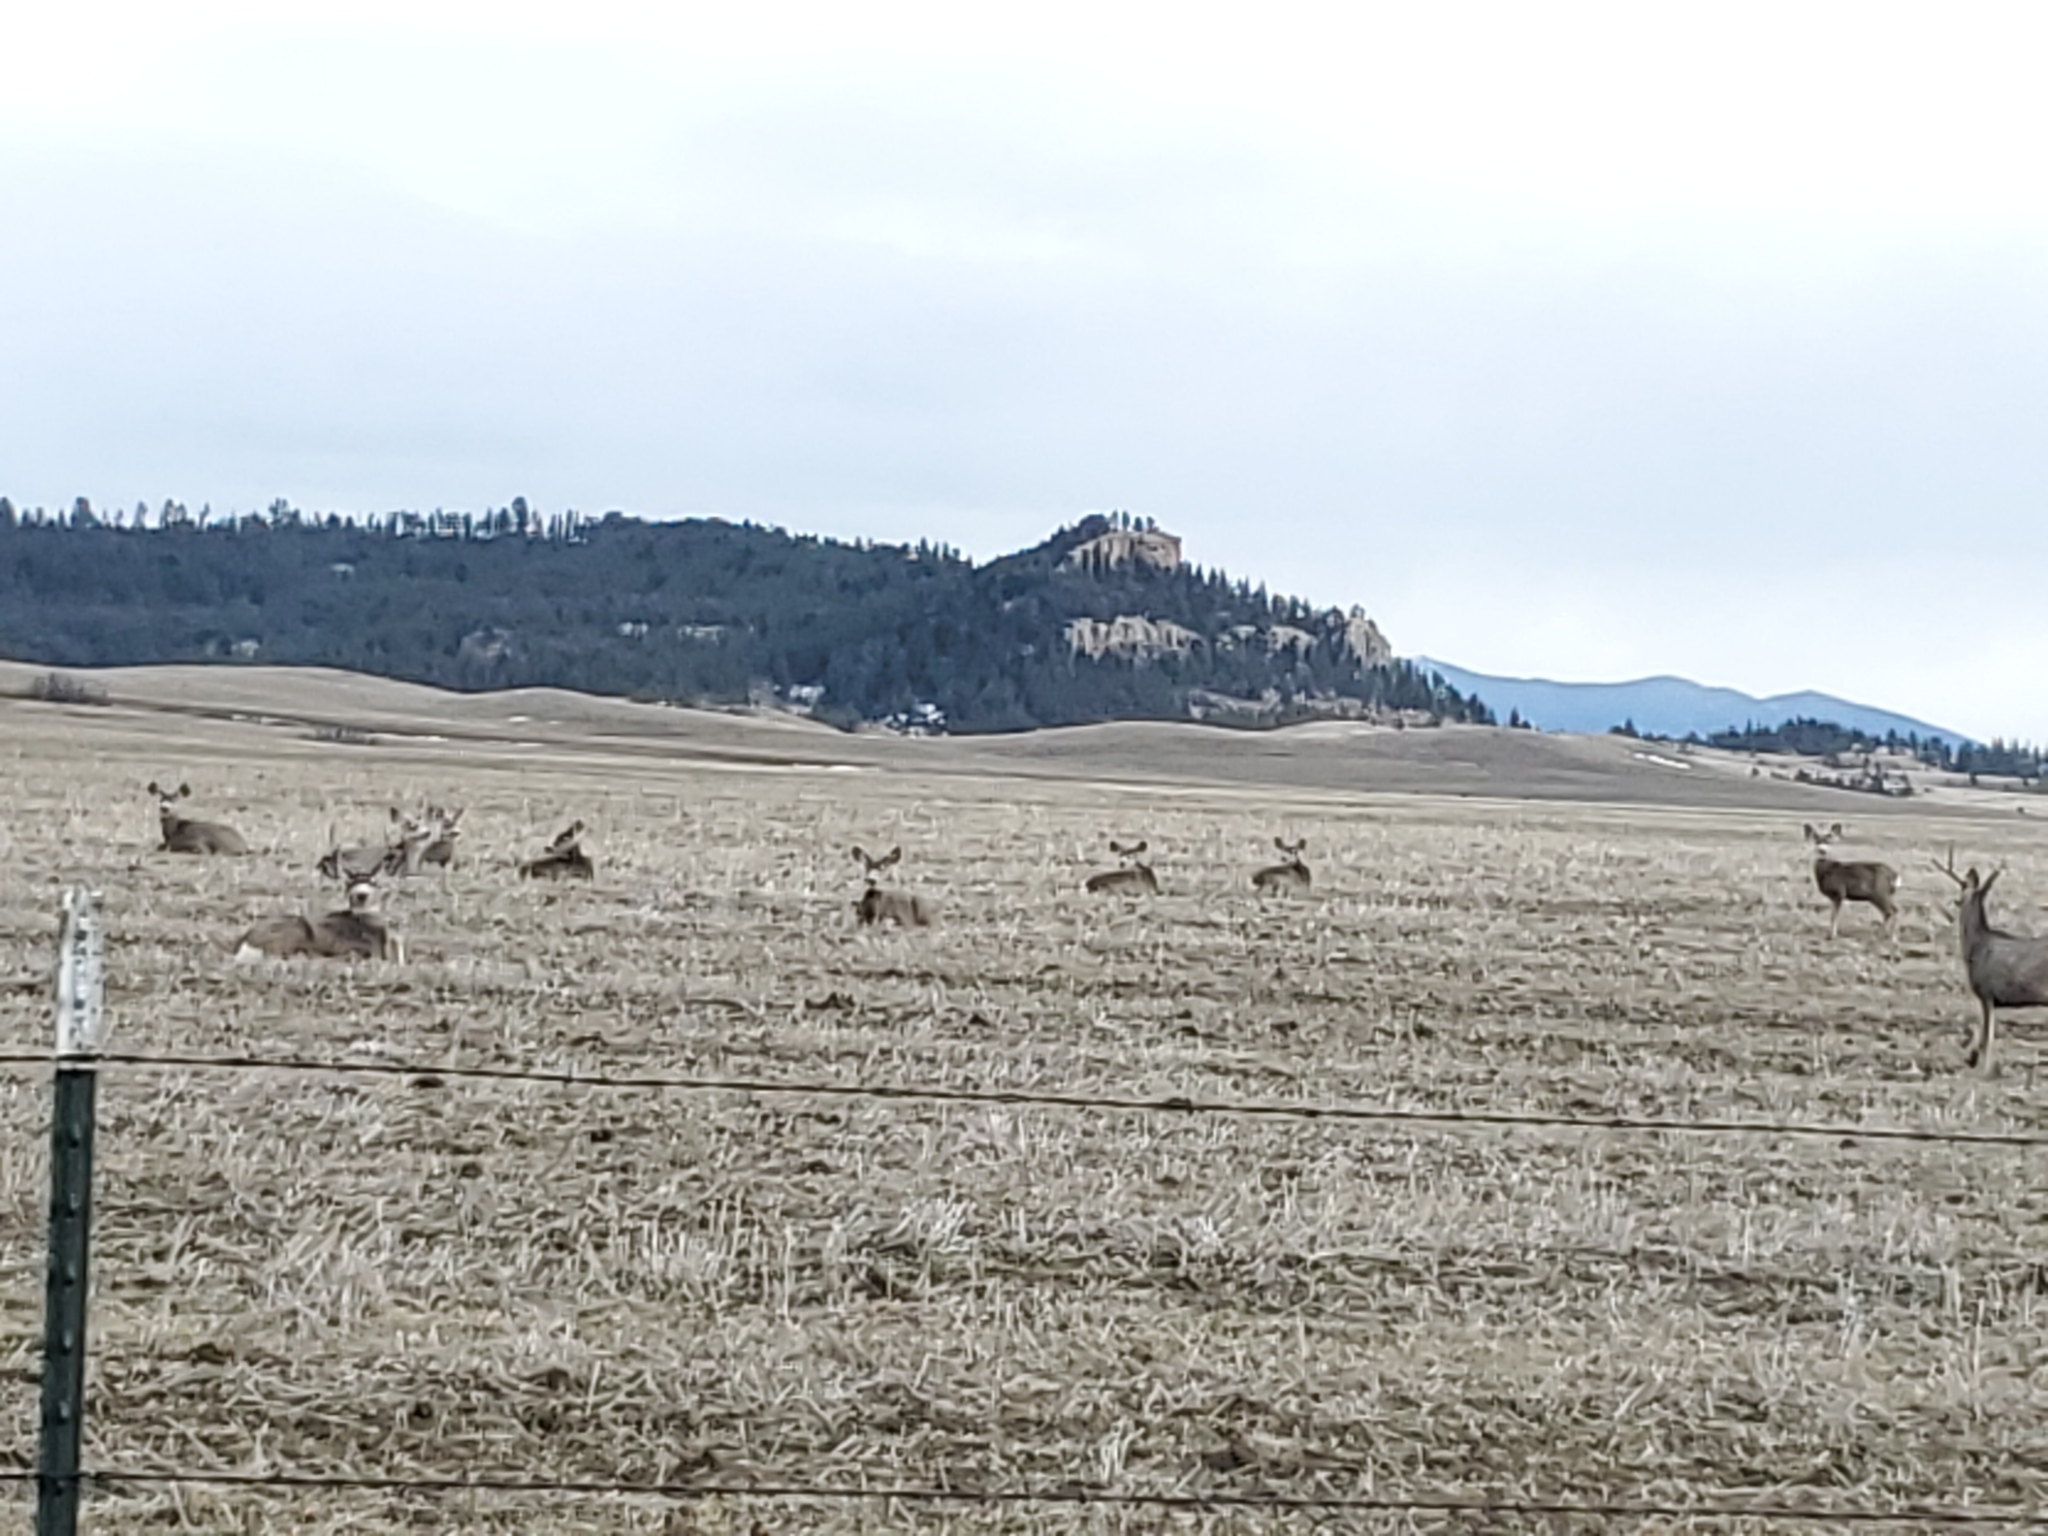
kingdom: Animalia
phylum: Chordata
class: Mammalia
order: Artiodactyla
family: Cervidae
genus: Odocoileus
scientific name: Odocoileus hemionus
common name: Mule deer
